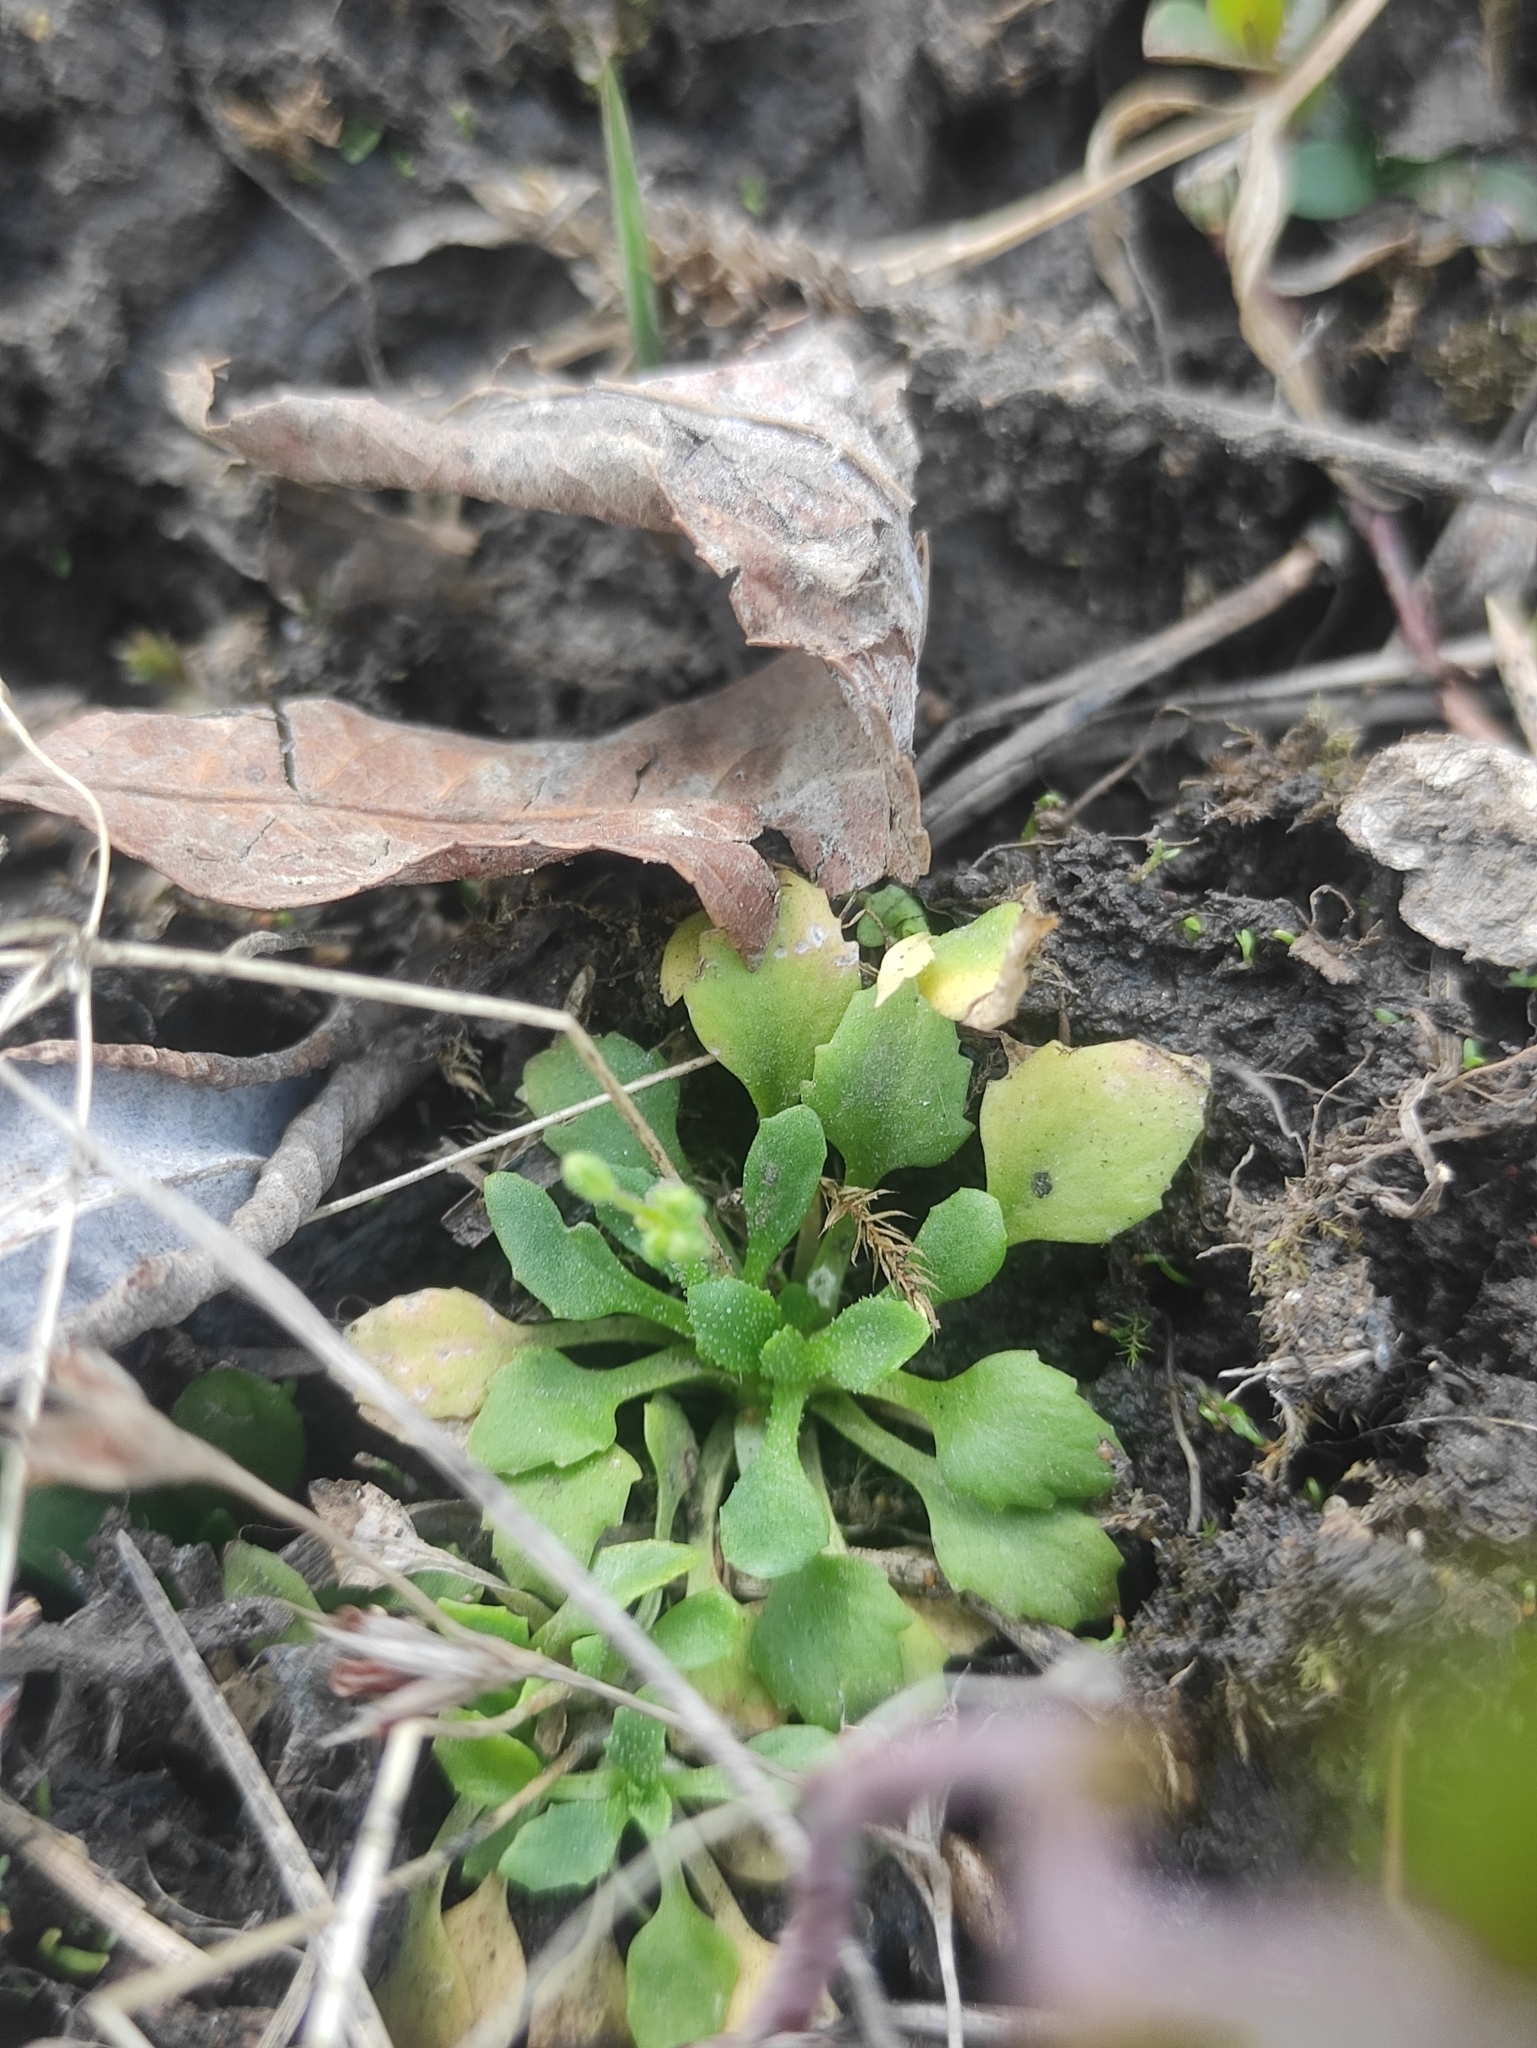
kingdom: Plantae
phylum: Tracheophyta
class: Magnoliopsida
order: Ericales
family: Primulaceae
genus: Androsace
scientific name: Androsace filiformis
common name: Filiform rock jasmine
